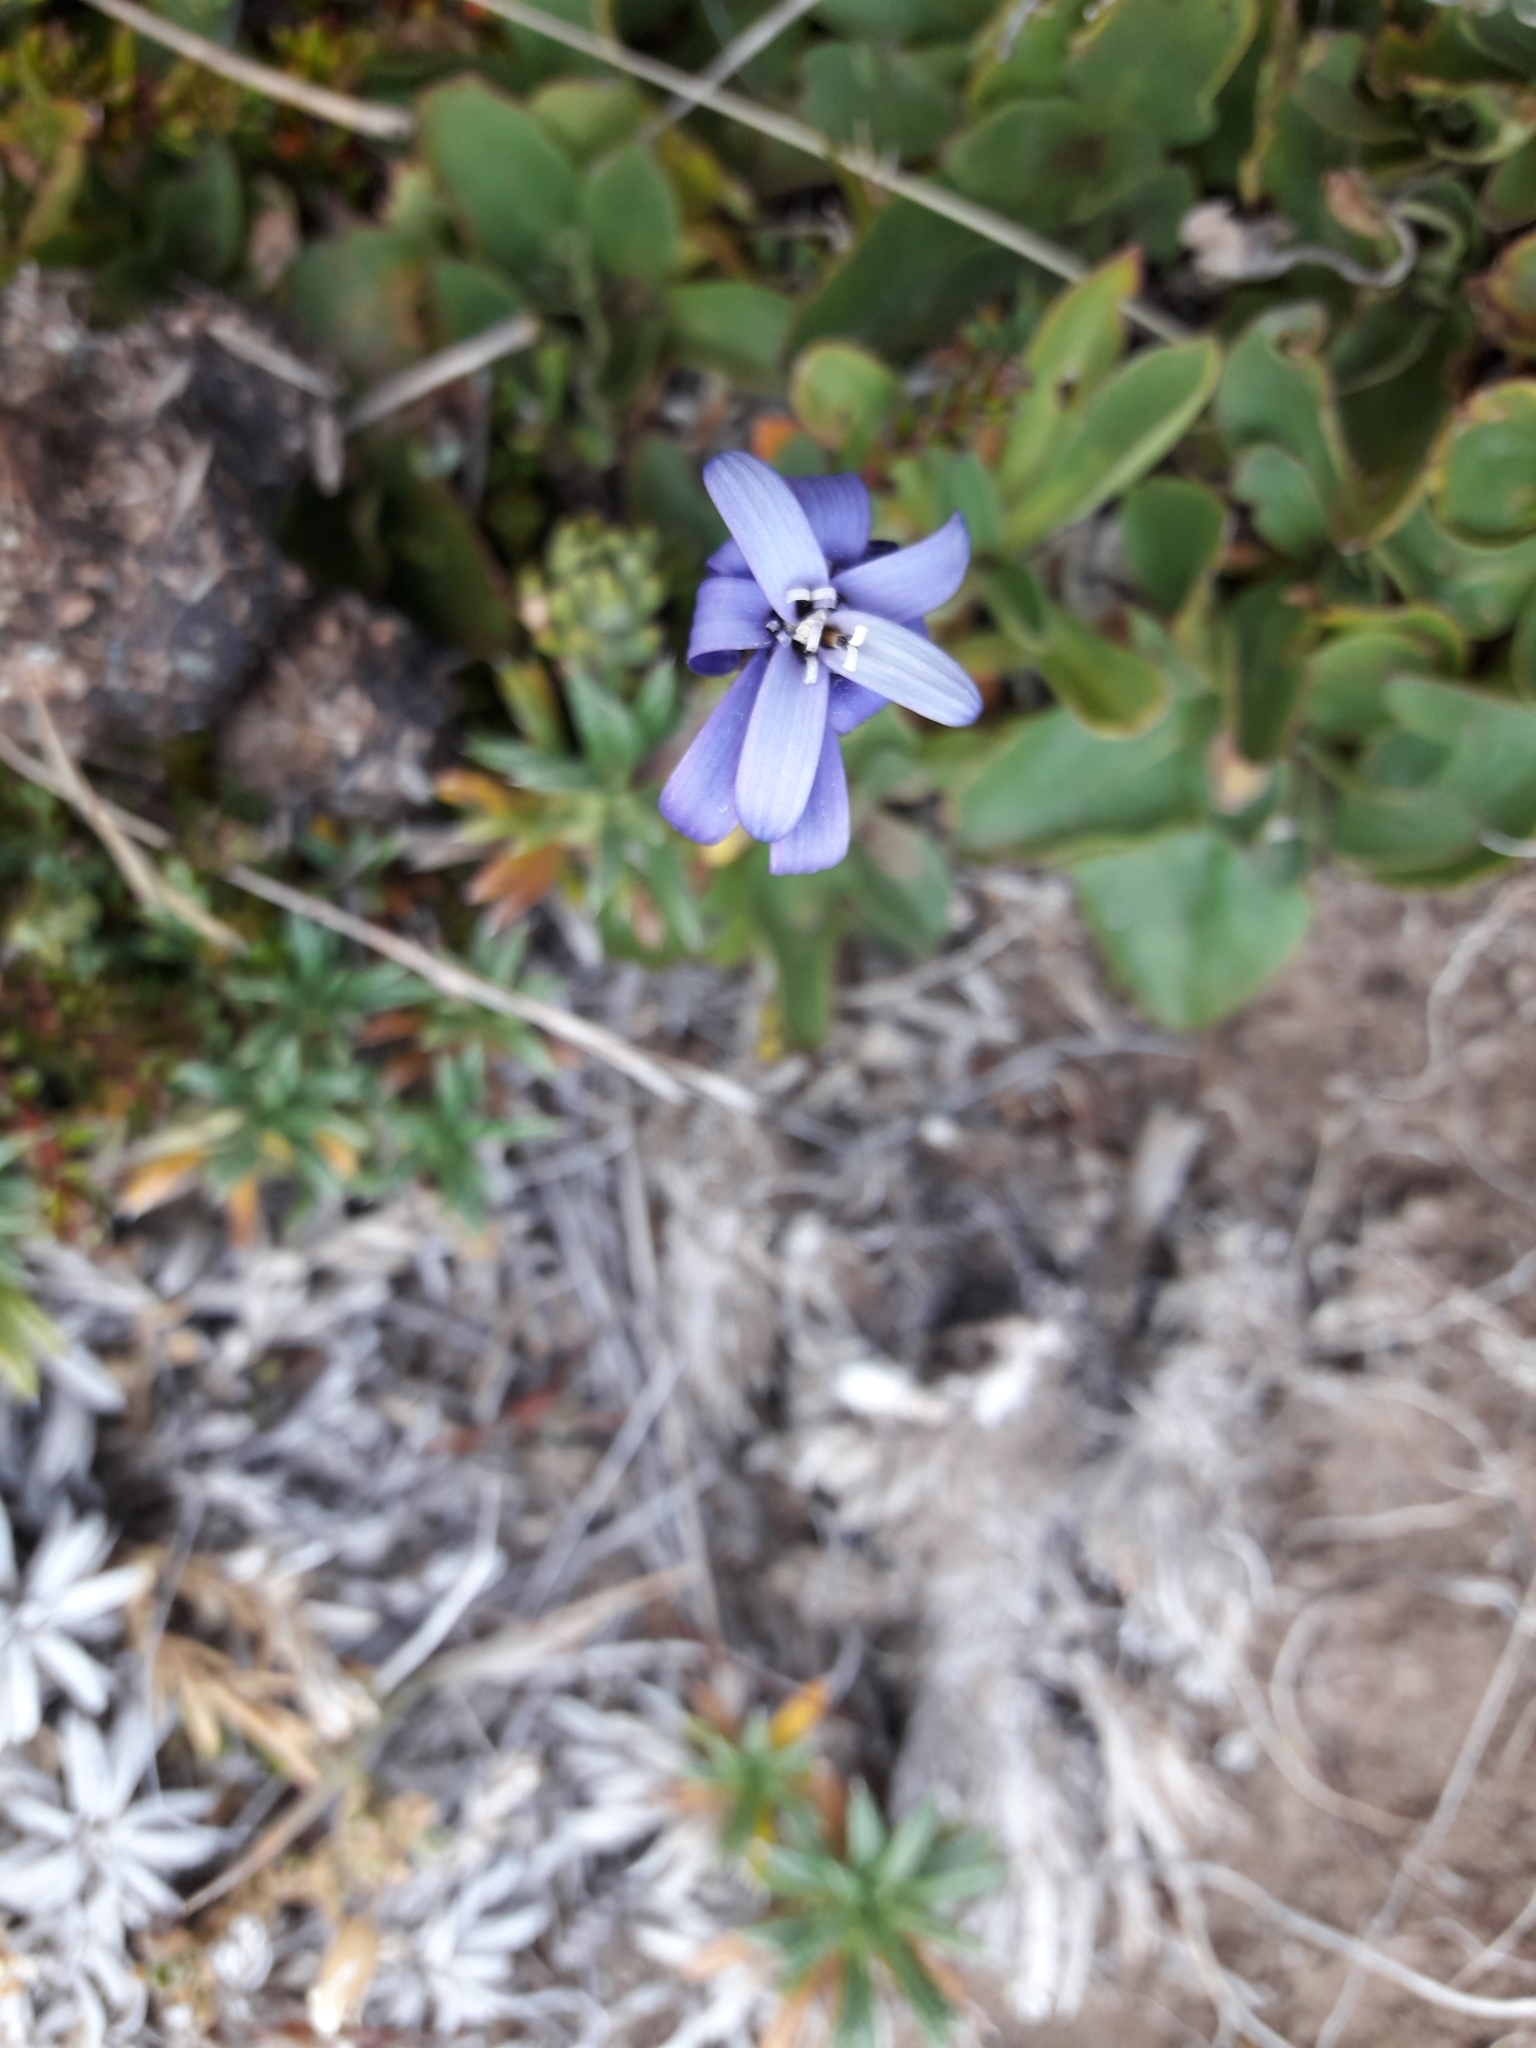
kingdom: Plantae
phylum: Tracheophyta
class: Magnoliopsida
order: Asterales
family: Asteraceae
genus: Perezia
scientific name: Perezia recurvata
